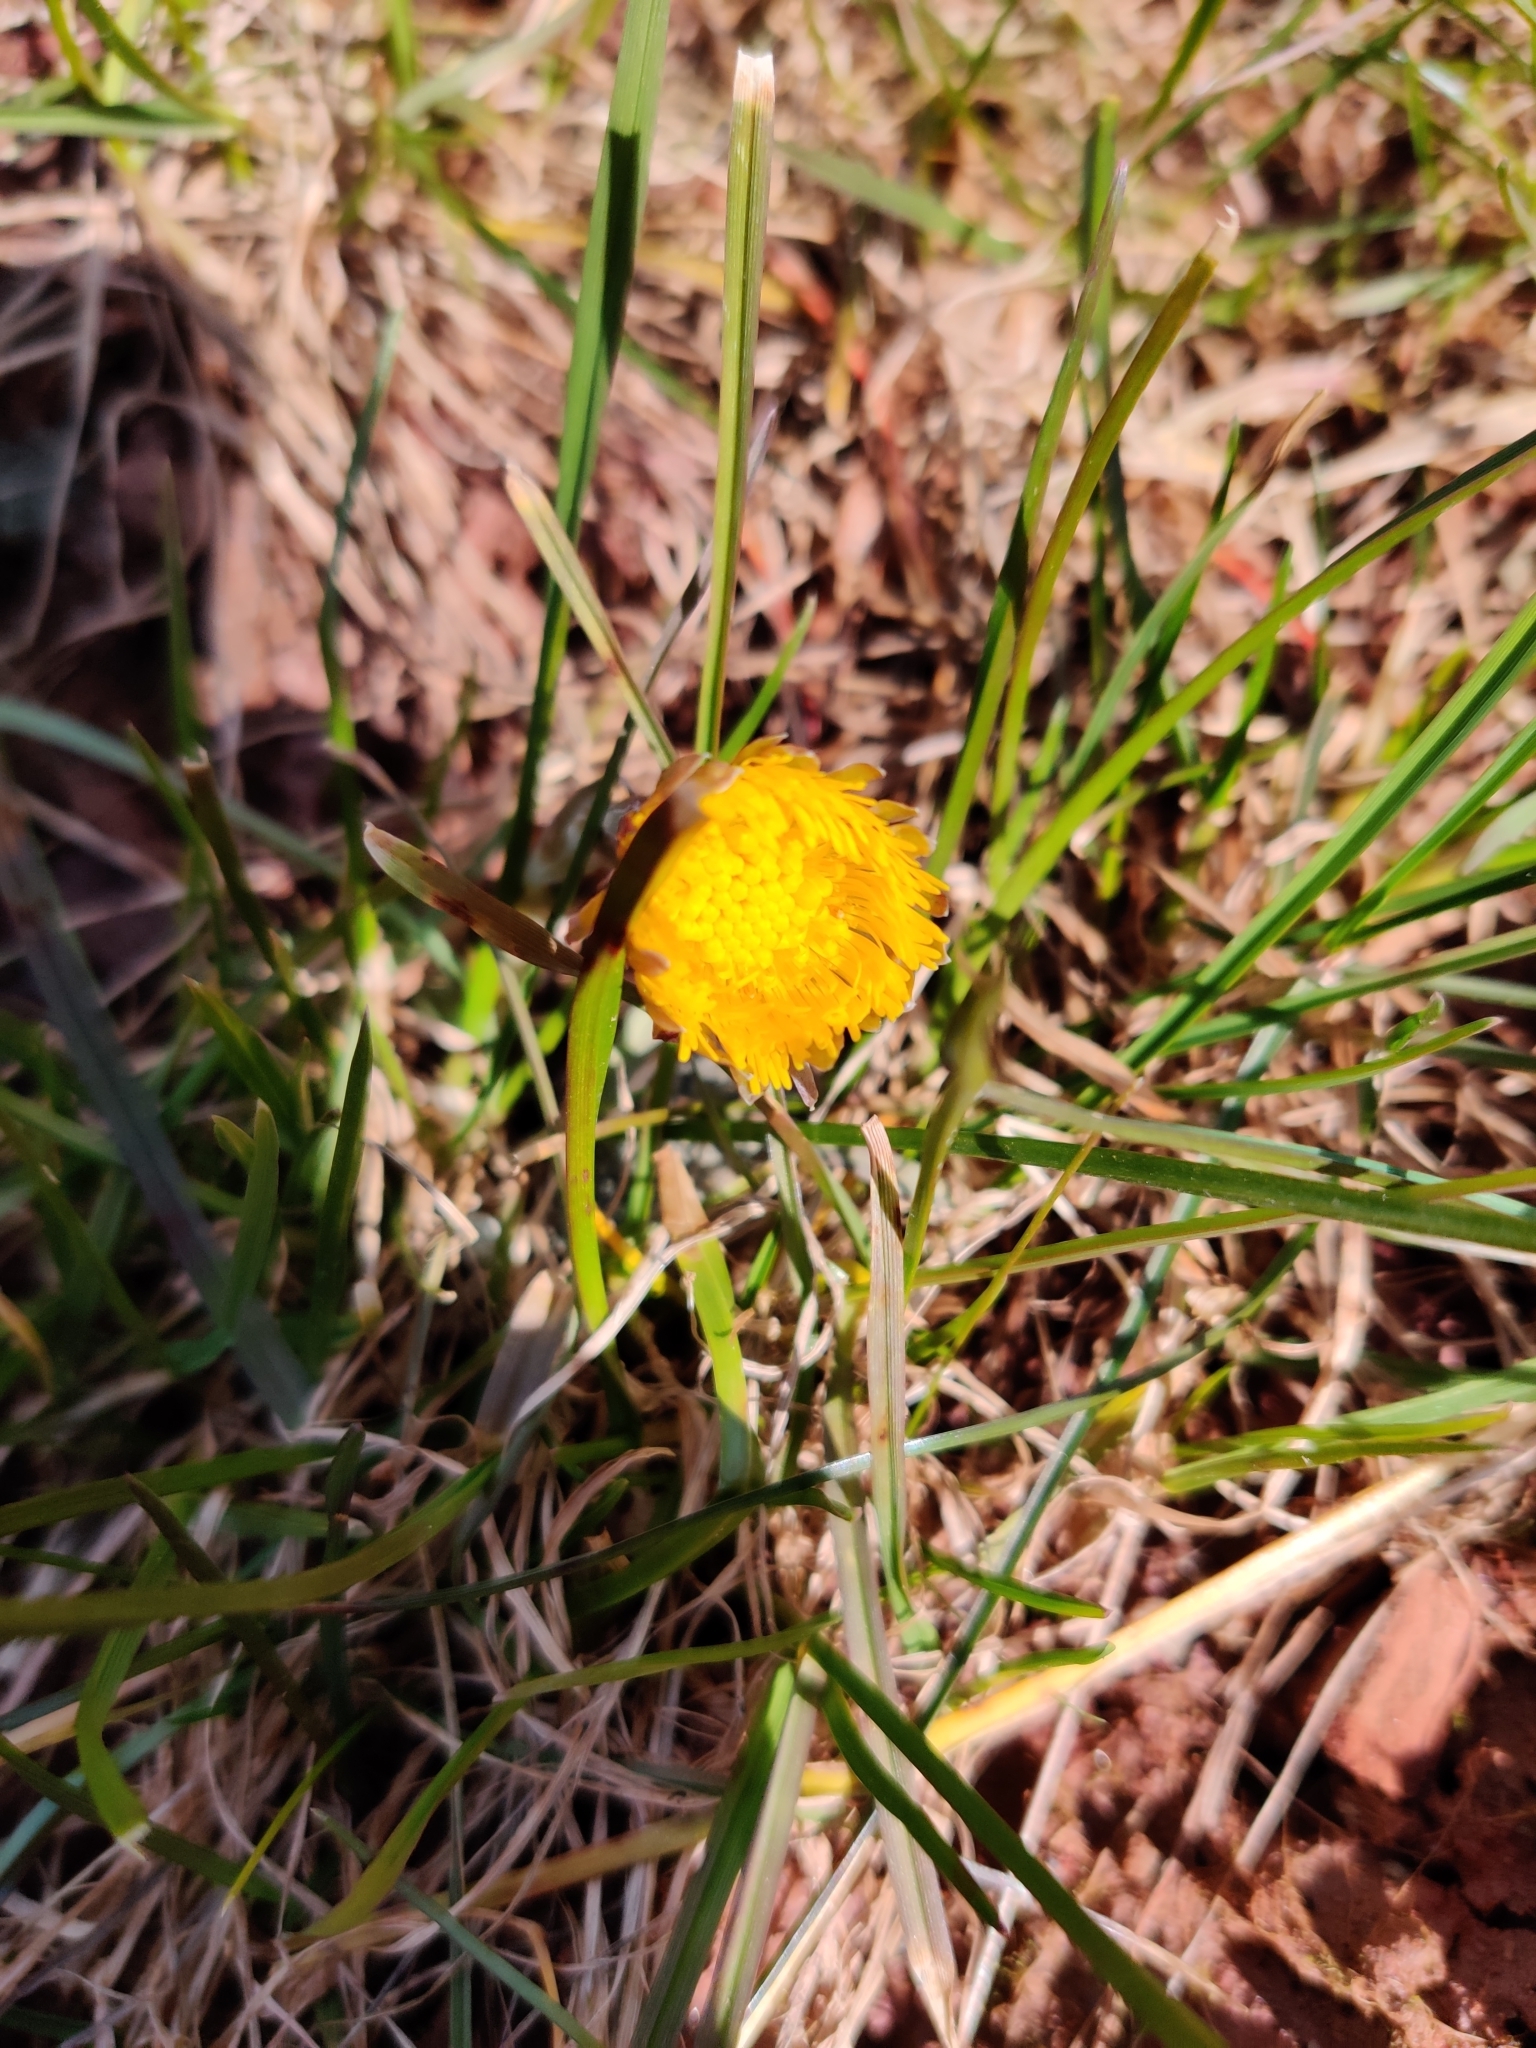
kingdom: Plantae
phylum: Tracheophyta
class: Magnoliopsida
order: Asterales
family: Asteraceae
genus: Tussilago
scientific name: Tussilago farfara
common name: Coltsfoot
